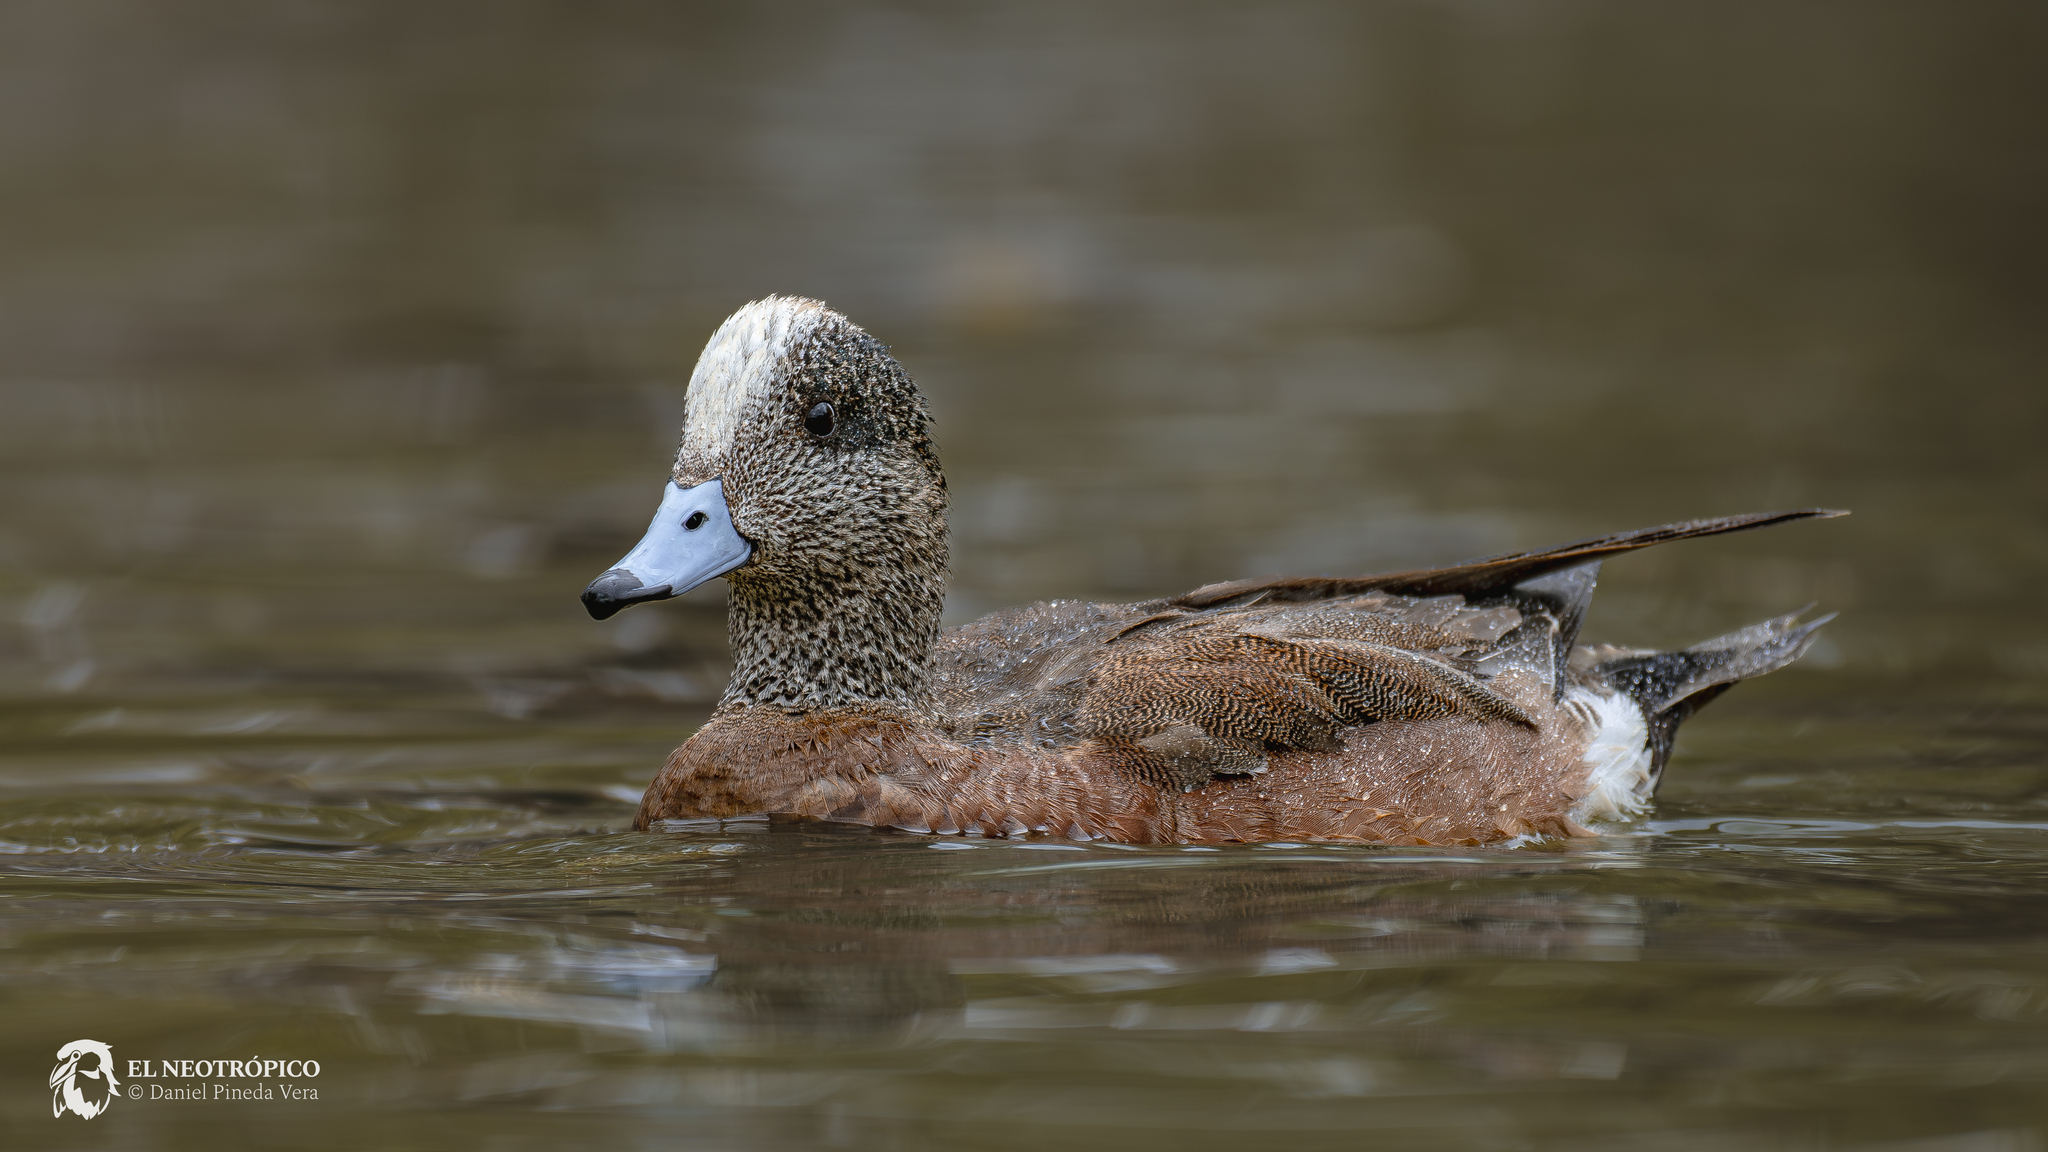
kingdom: Animalia
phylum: Chordata
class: Aves
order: Anseriformes
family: Anatidae
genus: Mareca
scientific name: Mareca americana
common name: American wigeon
